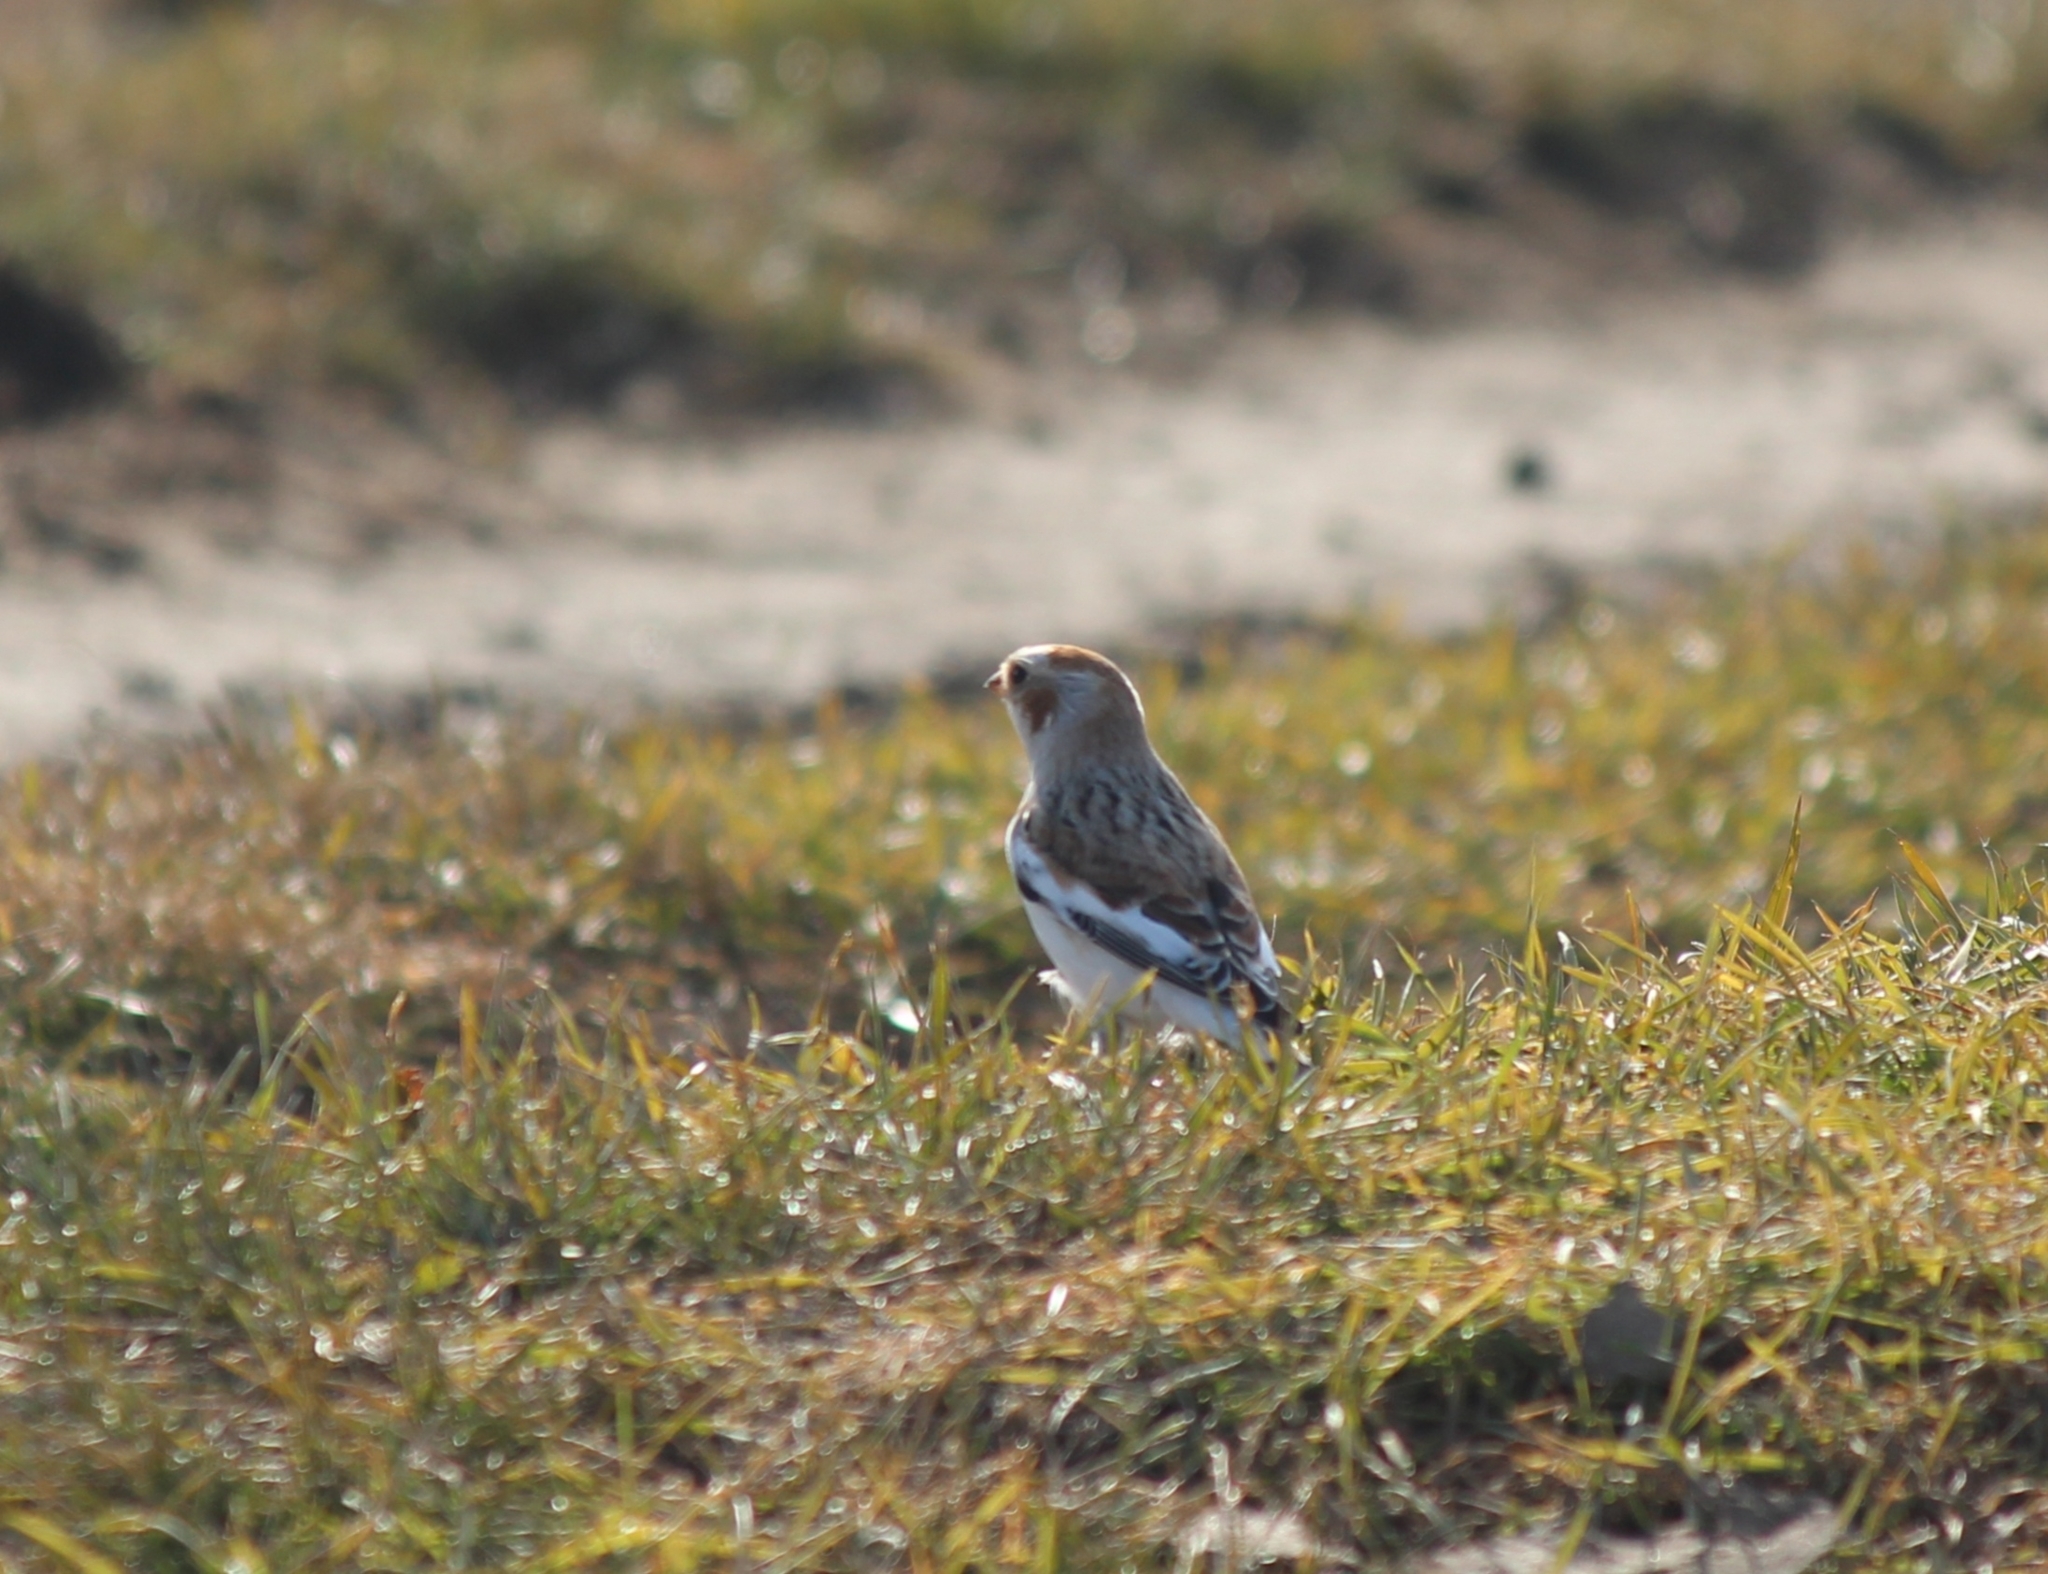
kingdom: Animalia
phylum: Chordata
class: Aves
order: Passeriformes
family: Calcariidae
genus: Plectrophenax
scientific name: Plectrophenax nivalis
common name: Snow bunting
